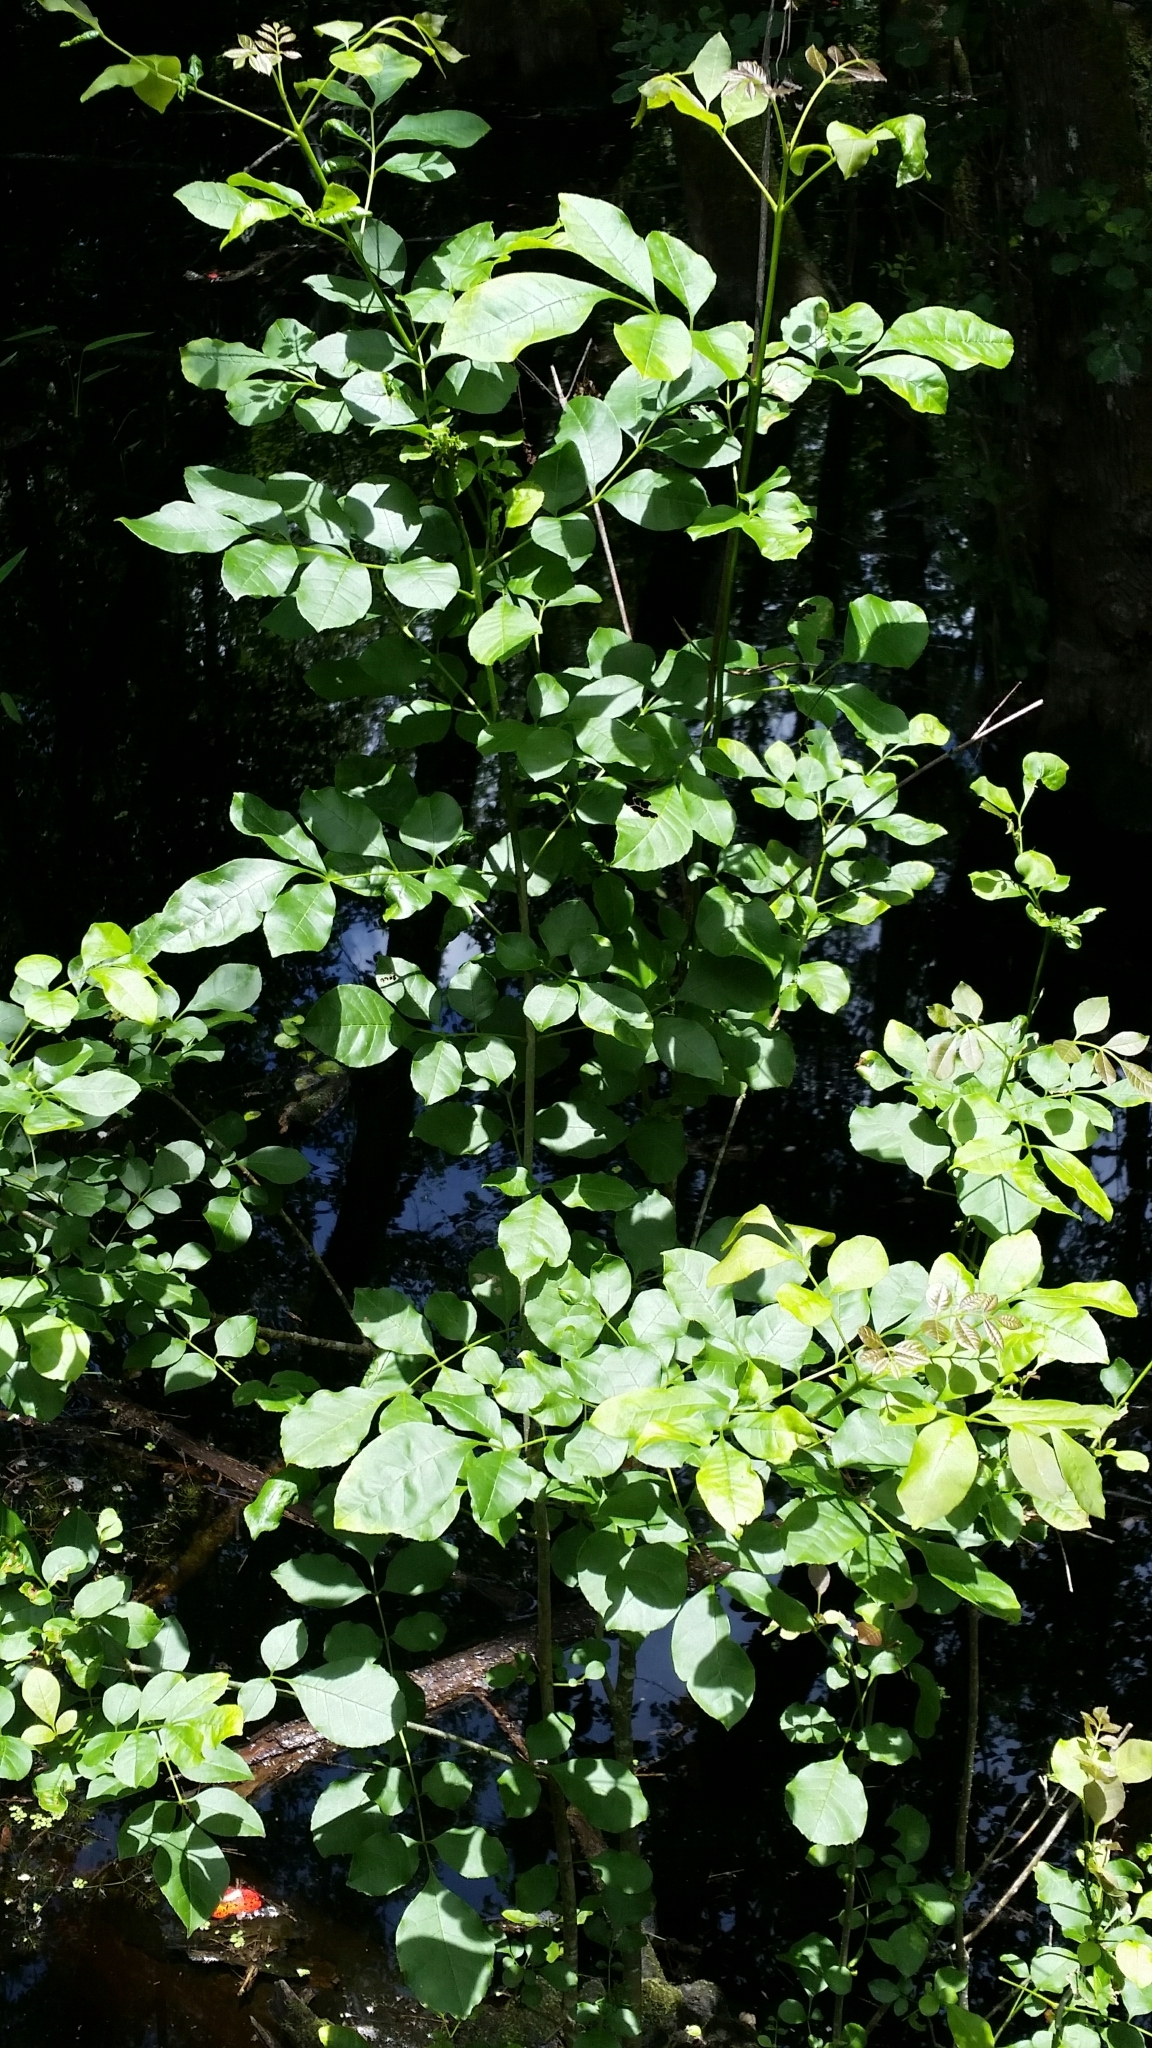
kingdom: Plantae
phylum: Tracheophyta
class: Magnoliopsida
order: Lamiales
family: Oleaceae
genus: Fraxinus
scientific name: Fraxinus caroliniana
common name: Carolina ash
